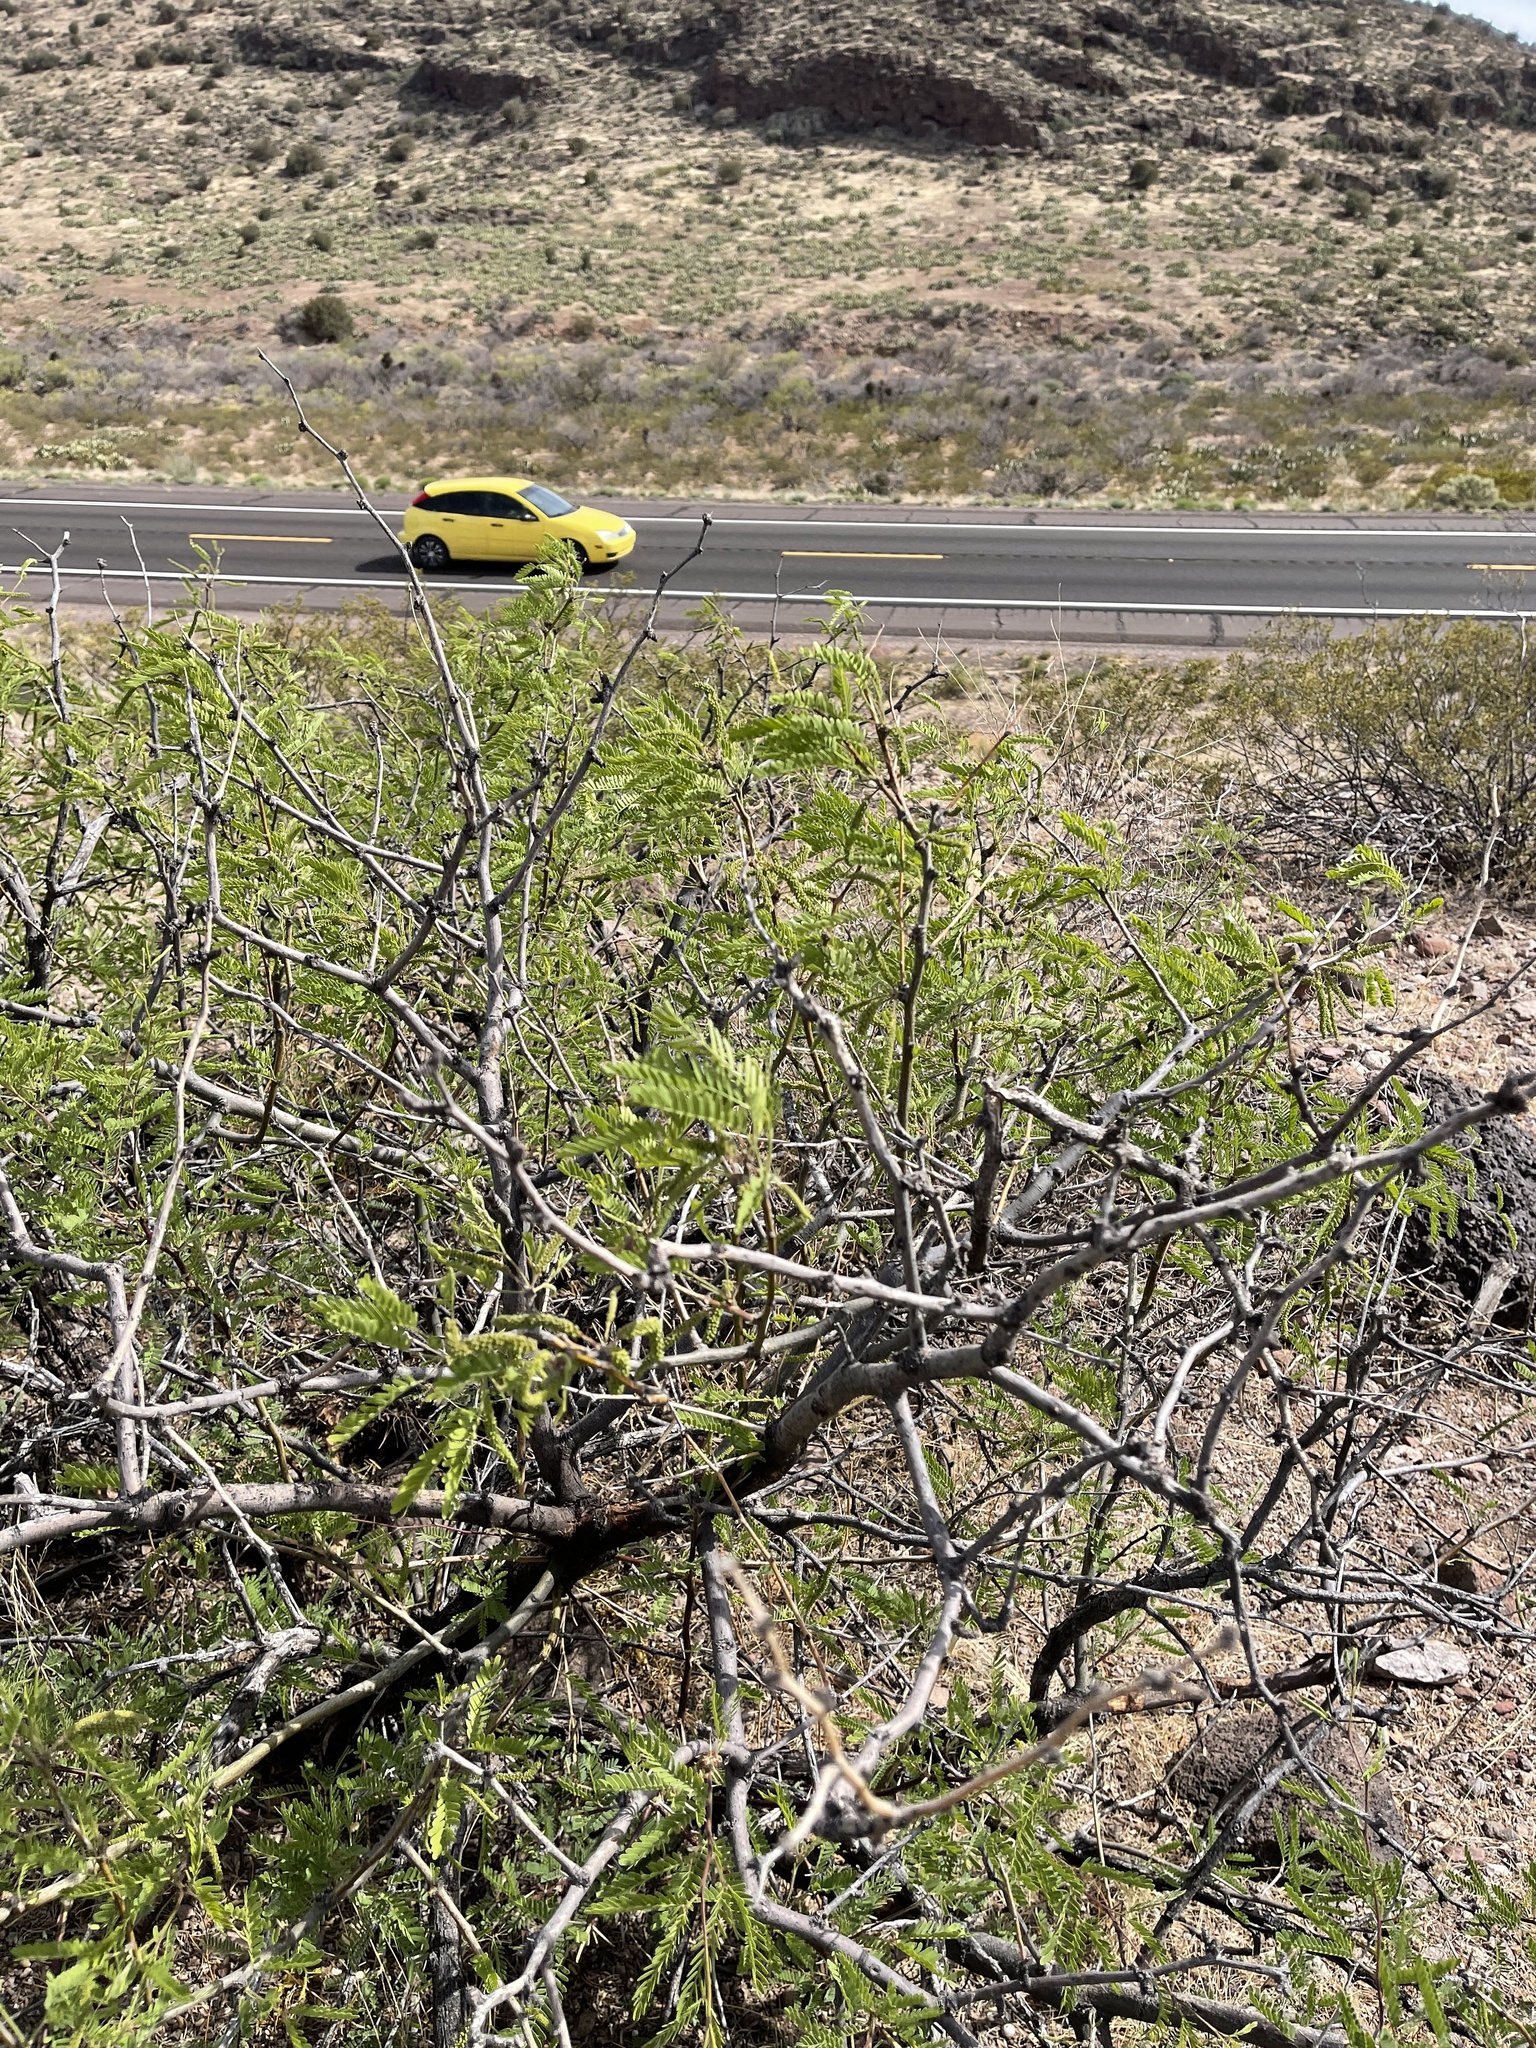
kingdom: Plantae
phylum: Tracheophyta
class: Magnoliopsida
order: Fabales
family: Fabaceae
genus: Prosopis
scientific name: Prosopis glandulosa
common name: Honey mesquite
